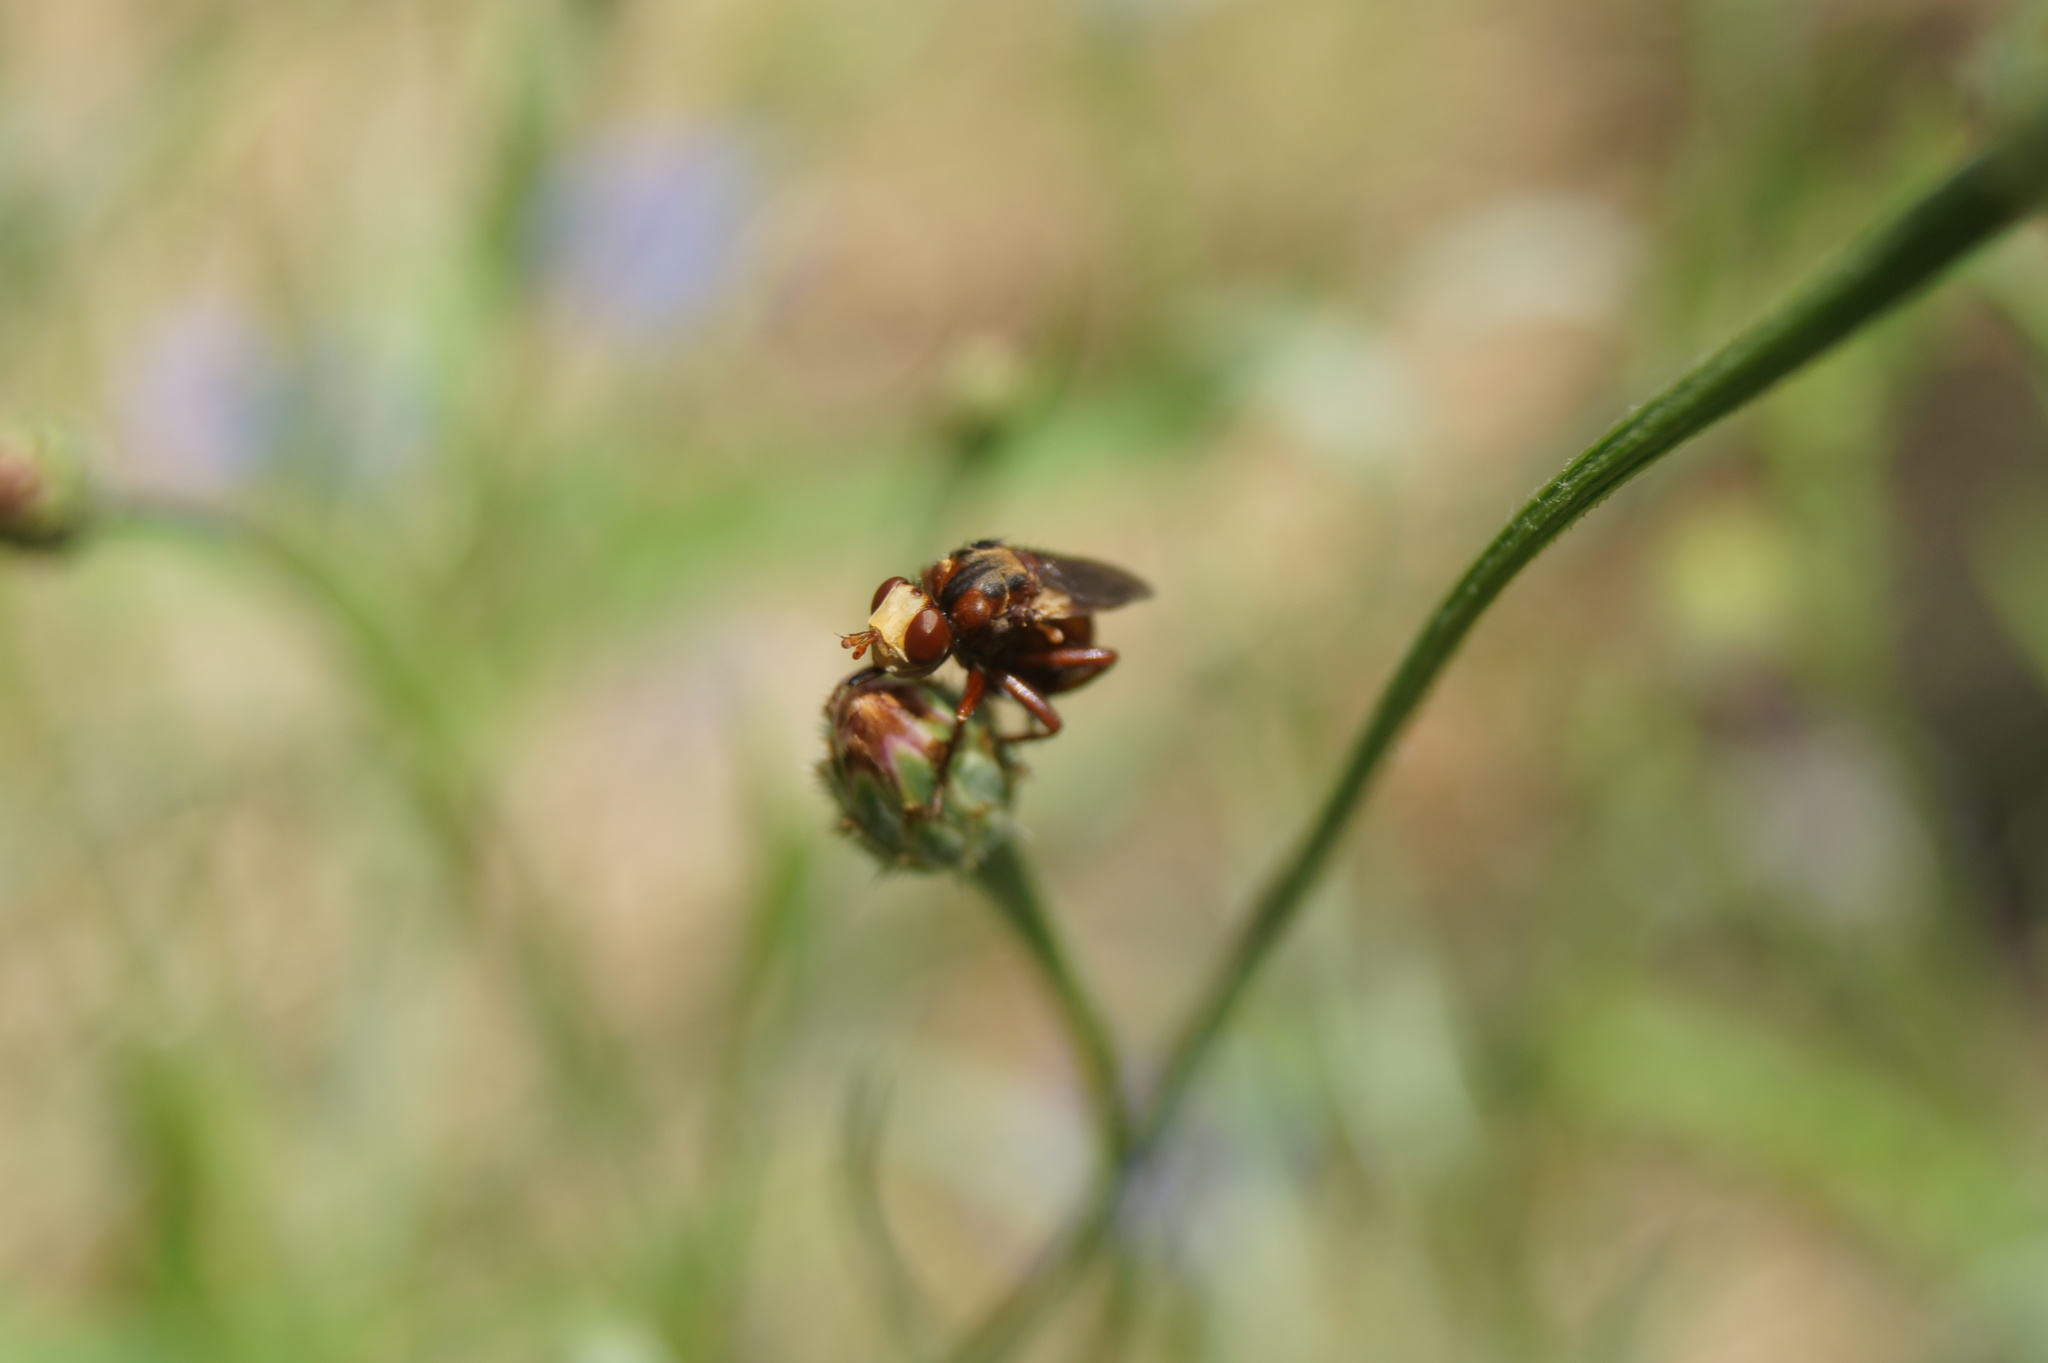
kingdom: Animalia
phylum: Arthropoda
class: Insecta
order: Diptera
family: Conopidae
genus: Sicus
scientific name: Sicus ferrugineus
